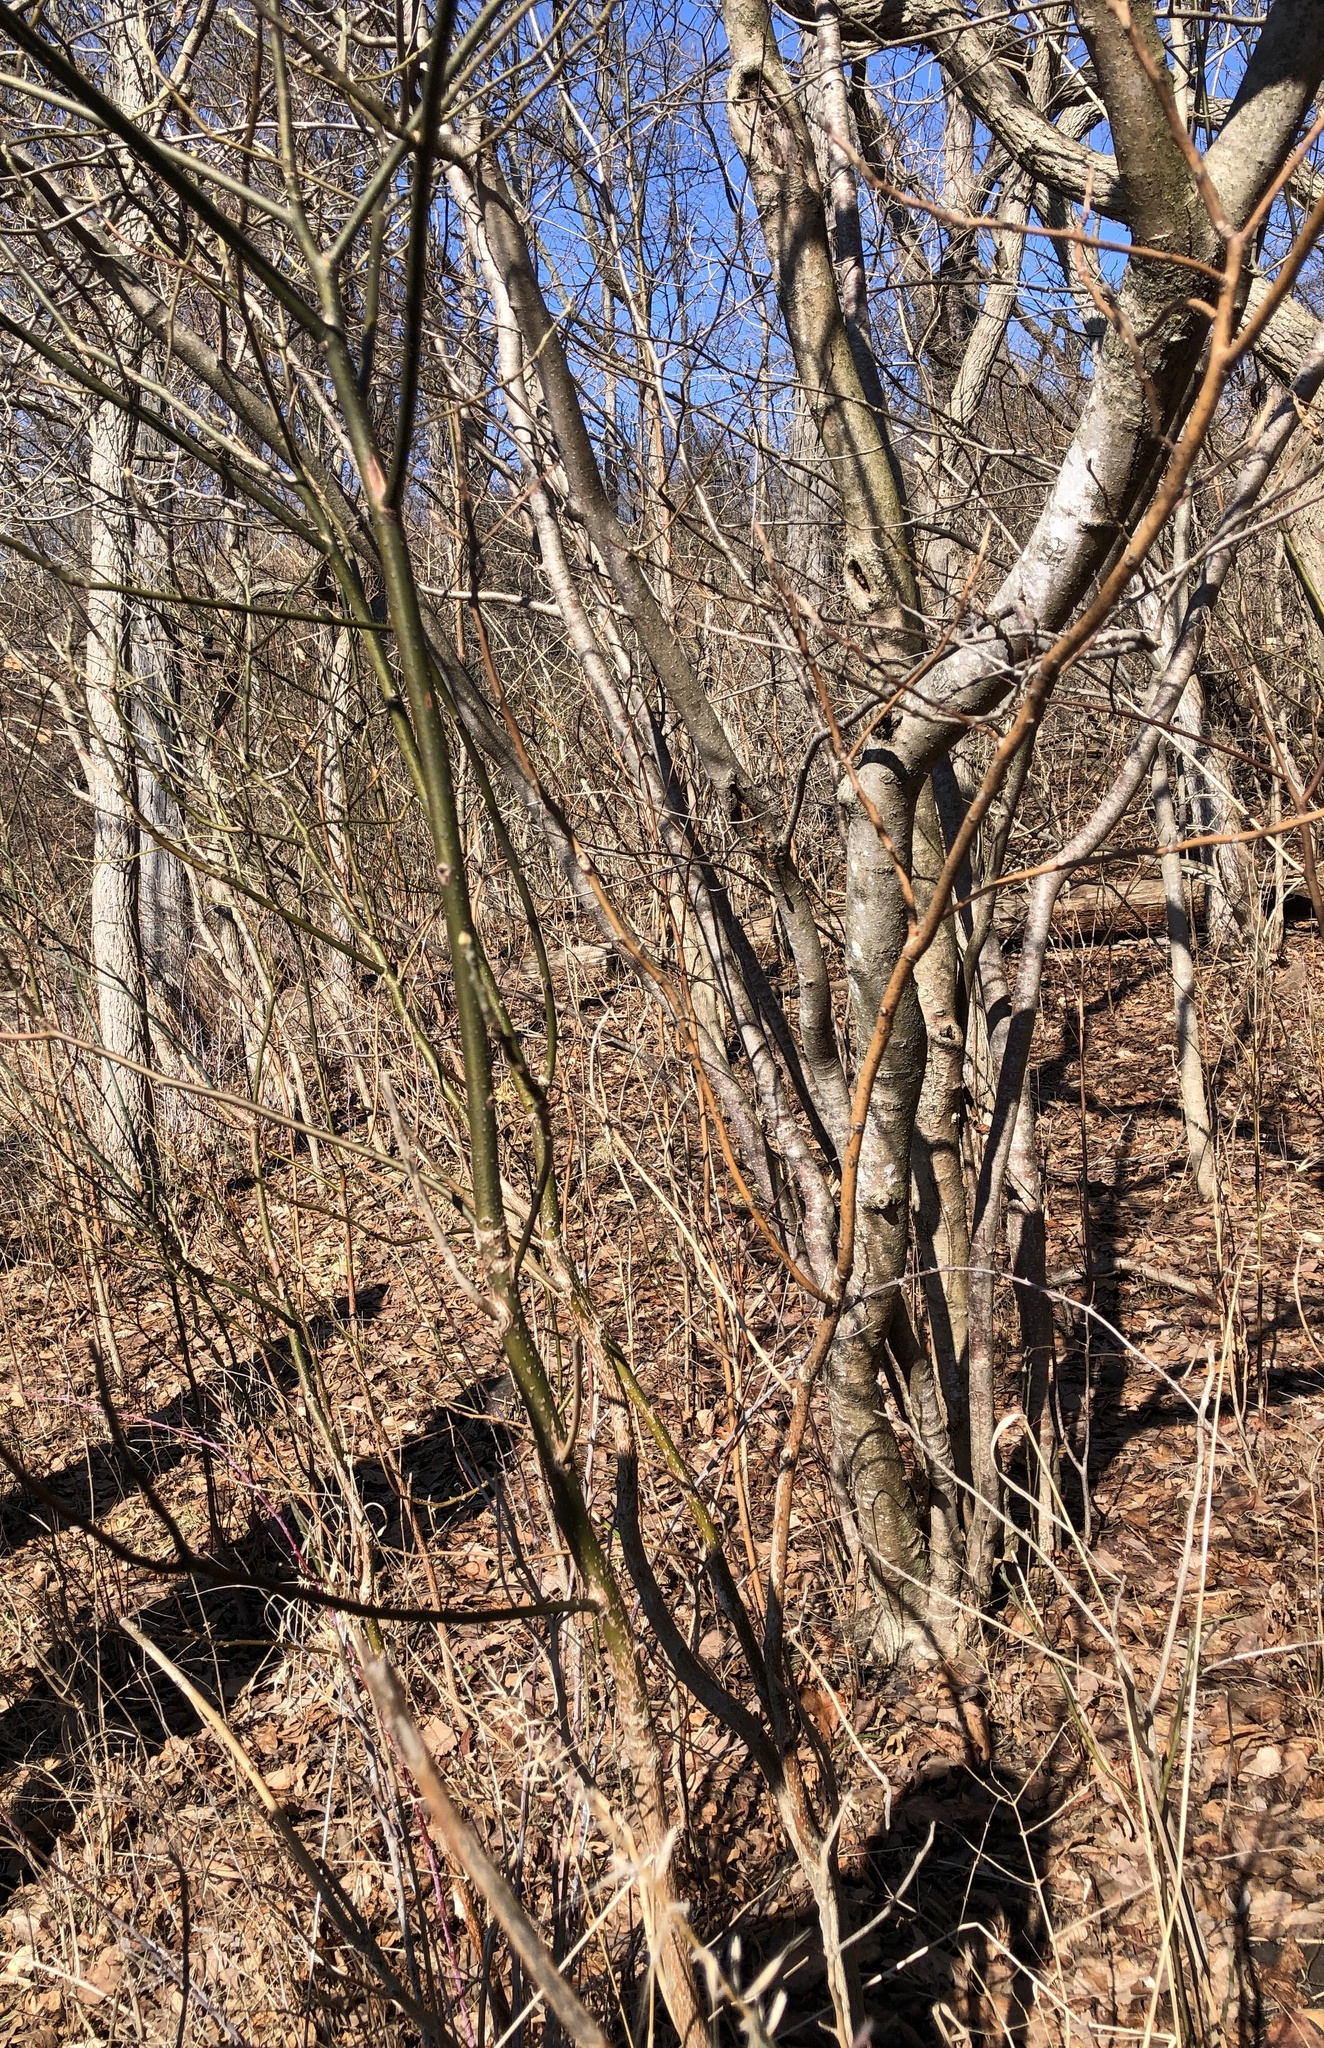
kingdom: Plantae
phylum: Tracheophyta
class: Magnoliopsida
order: Laurales
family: Lauraceae
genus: Sassafras
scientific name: Sassafras albidum
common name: Sassafras
